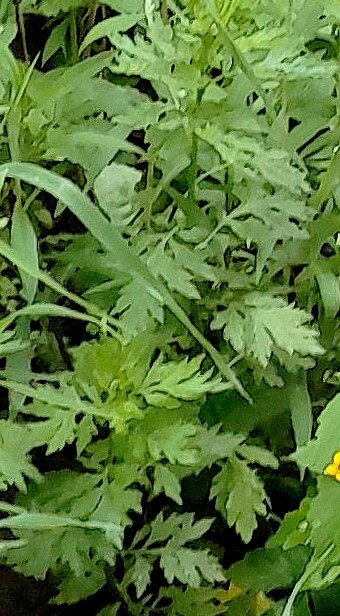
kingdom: Plantae
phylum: Tracheophyta
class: Magnoliopsida
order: Asterales
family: Asteraceae
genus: Artemisia
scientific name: Artemisia vulgaris
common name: Mugwort
